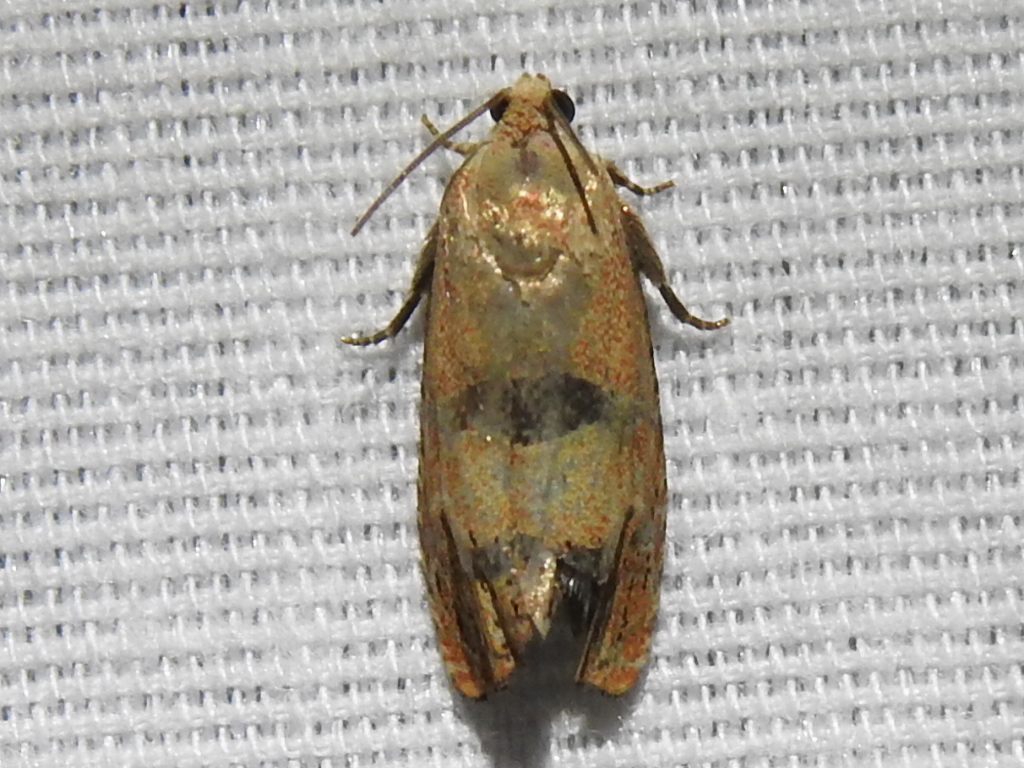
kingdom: Animalia
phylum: Arthropoda
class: Insecta
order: Lepidoptera
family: Tortricidae
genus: Cydia
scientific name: Cydia latiferreana
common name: Filbertworm moth
